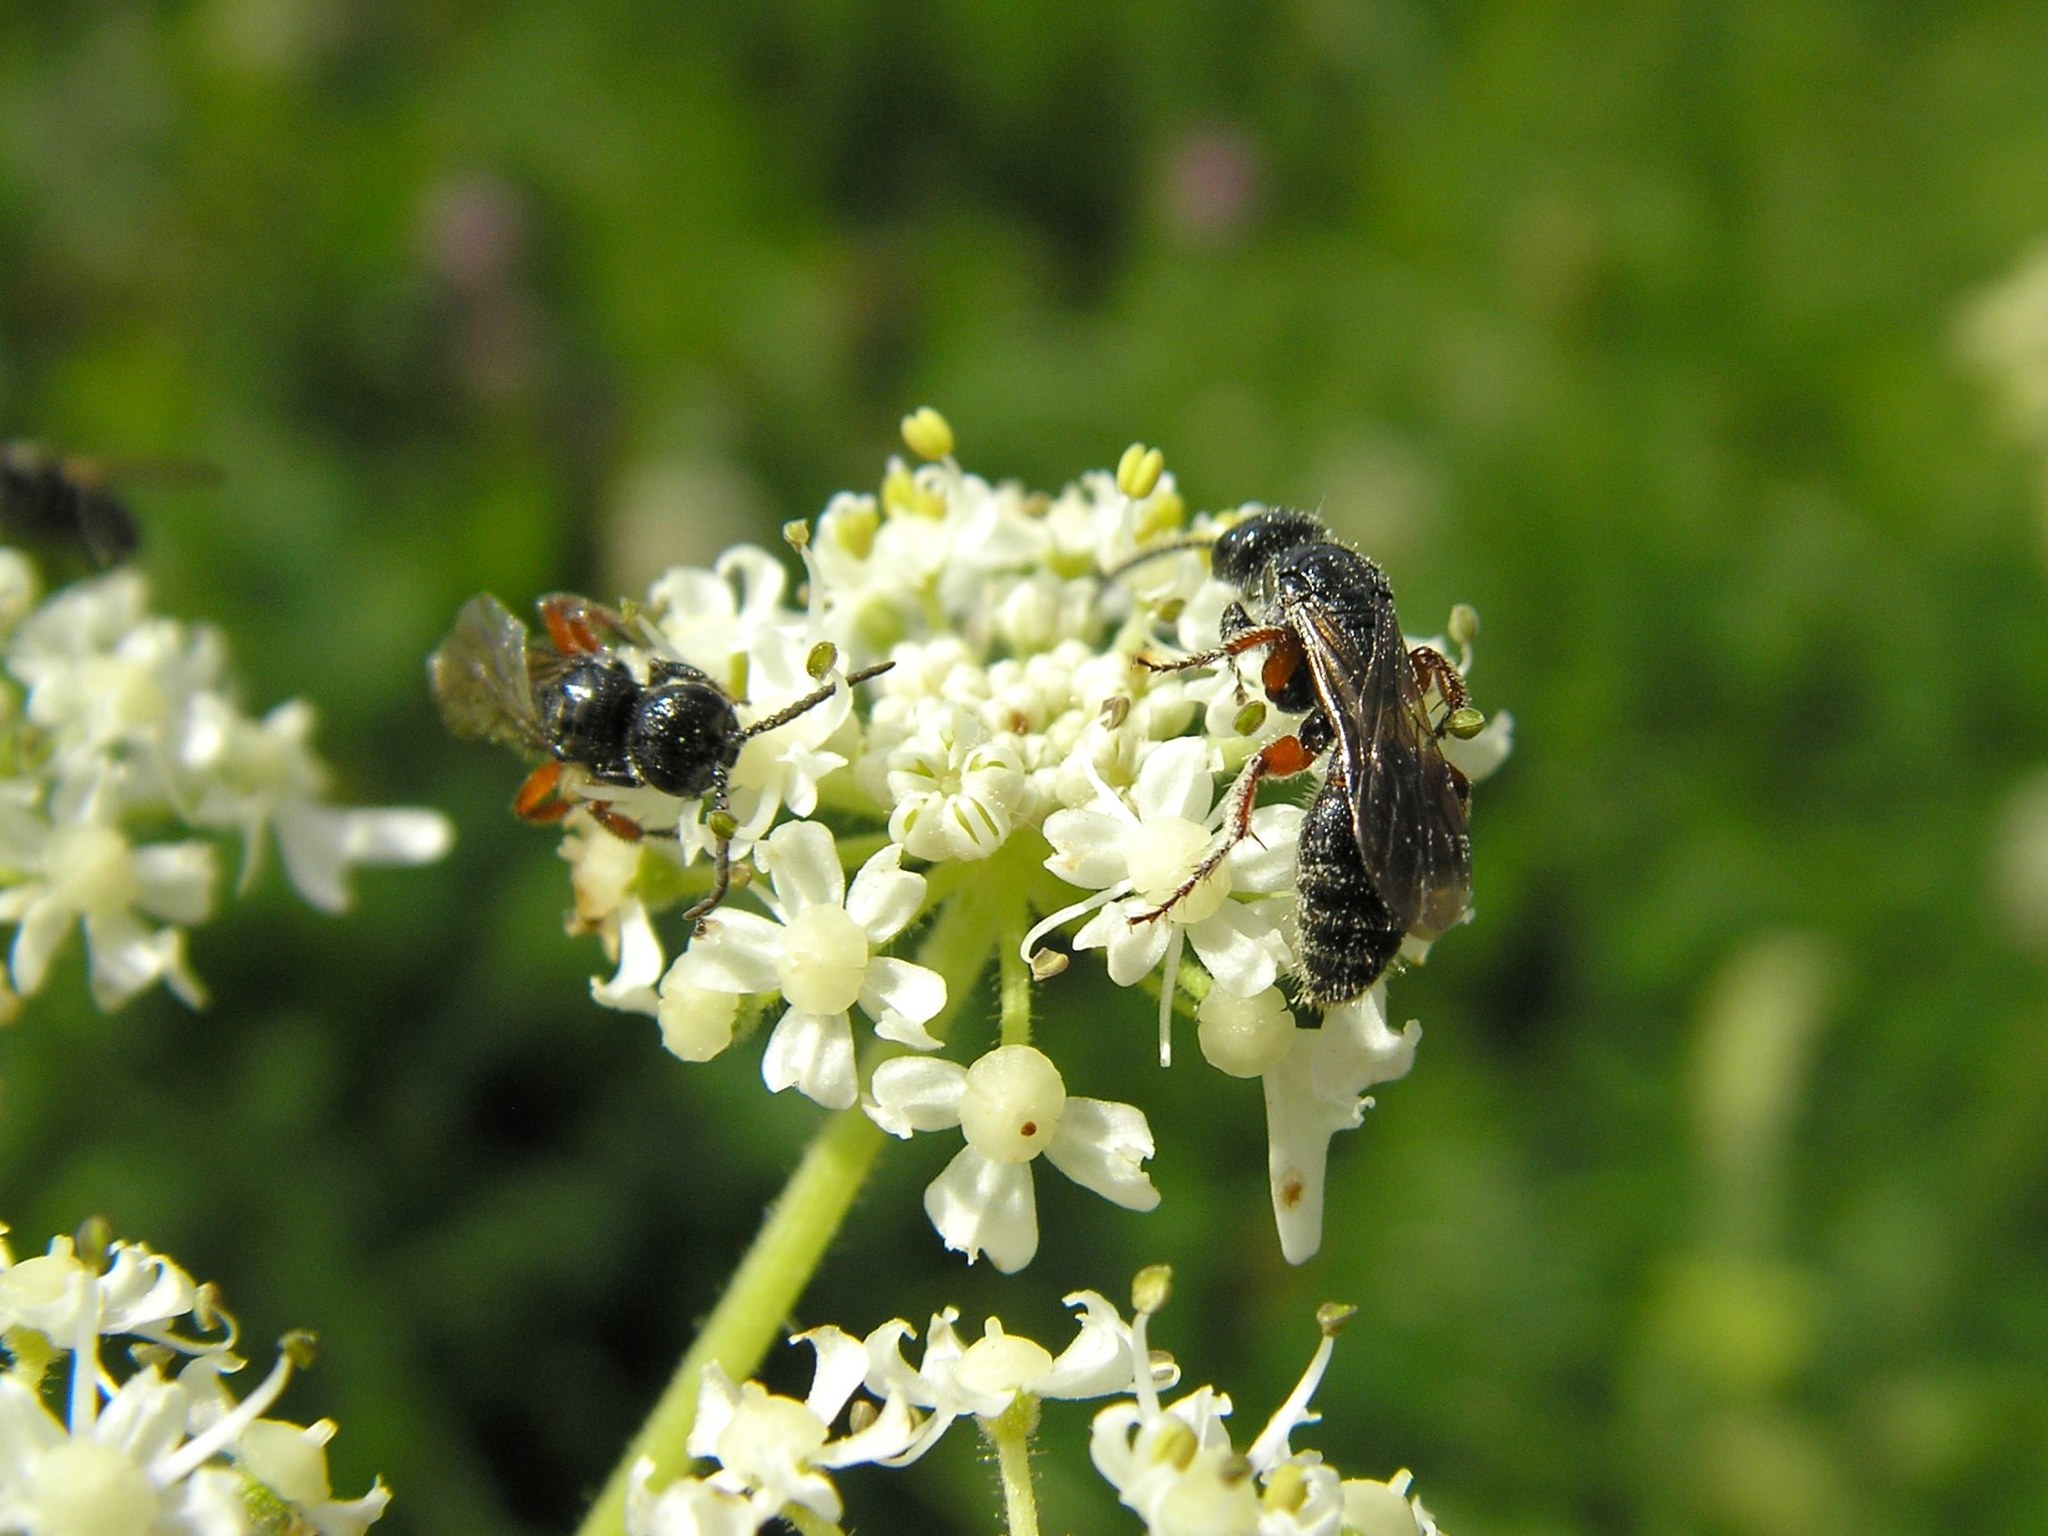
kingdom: Animalia
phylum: Arthropoda
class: Insecta
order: Hymenoptera
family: Tiphiidae
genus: Tiphia
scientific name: Tiphia femorata
